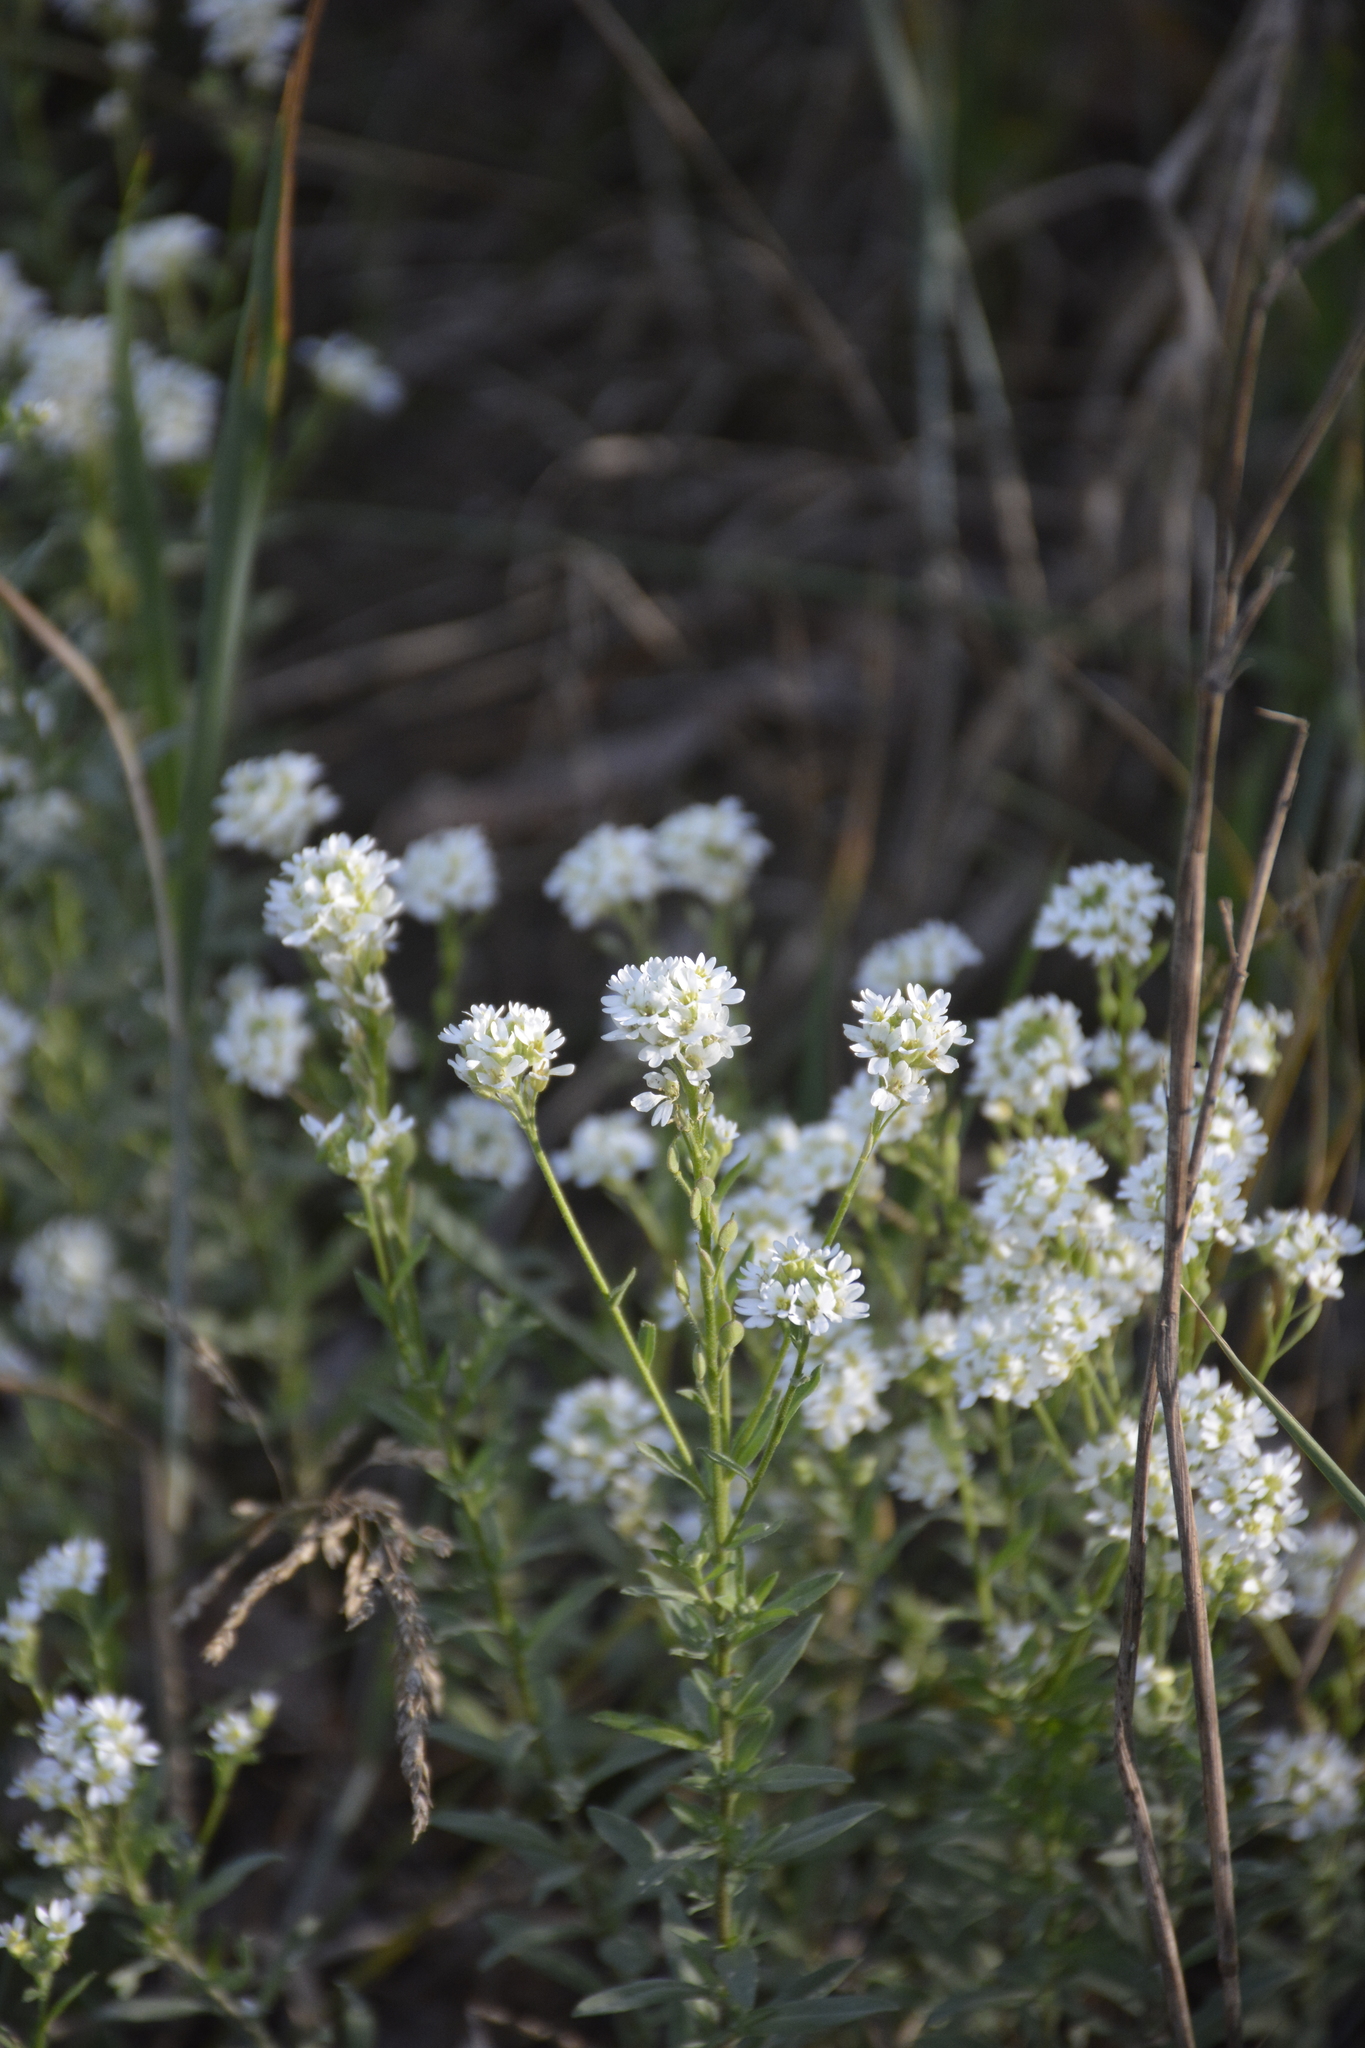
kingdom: Plantae
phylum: Tracheophyta
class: Magnoliopsida
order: Brassicales
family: Brassicaceae
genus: Berteroa
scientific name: Berteroa incana
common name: Hoary alison
